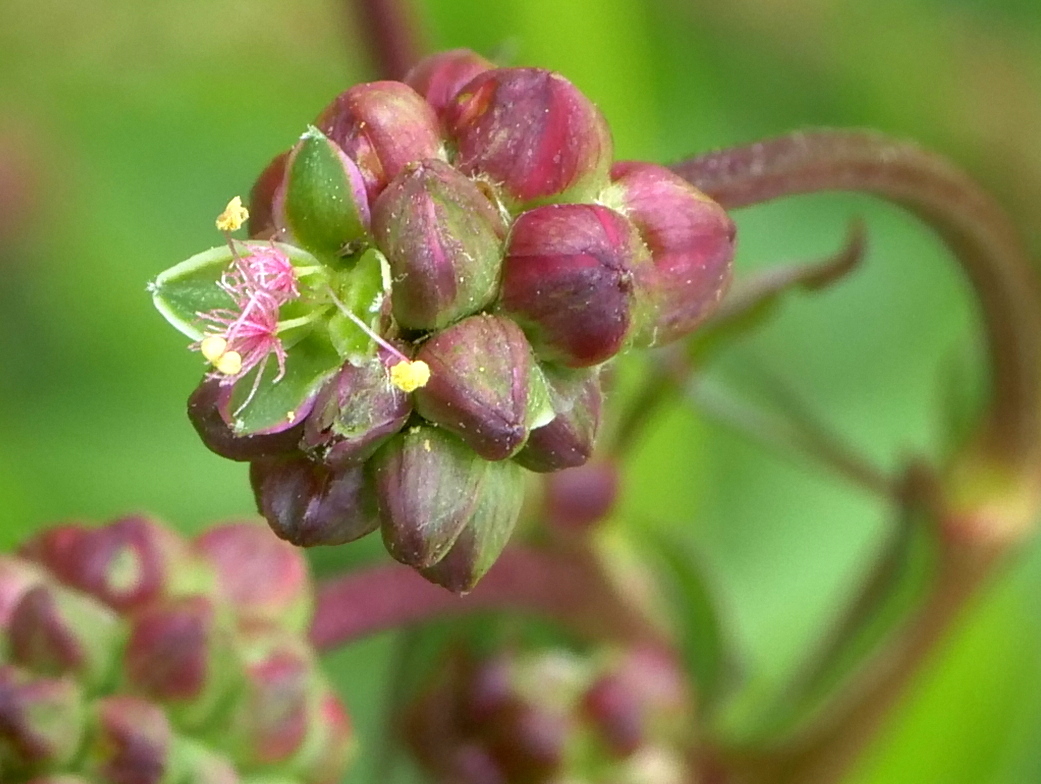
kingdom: Plantae
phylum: Tracheophyta
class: Magnoliopsida
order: Rosales
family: Rosaceae
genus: Poterium
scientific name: Poterium sanguisorba
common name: Salad burnet
